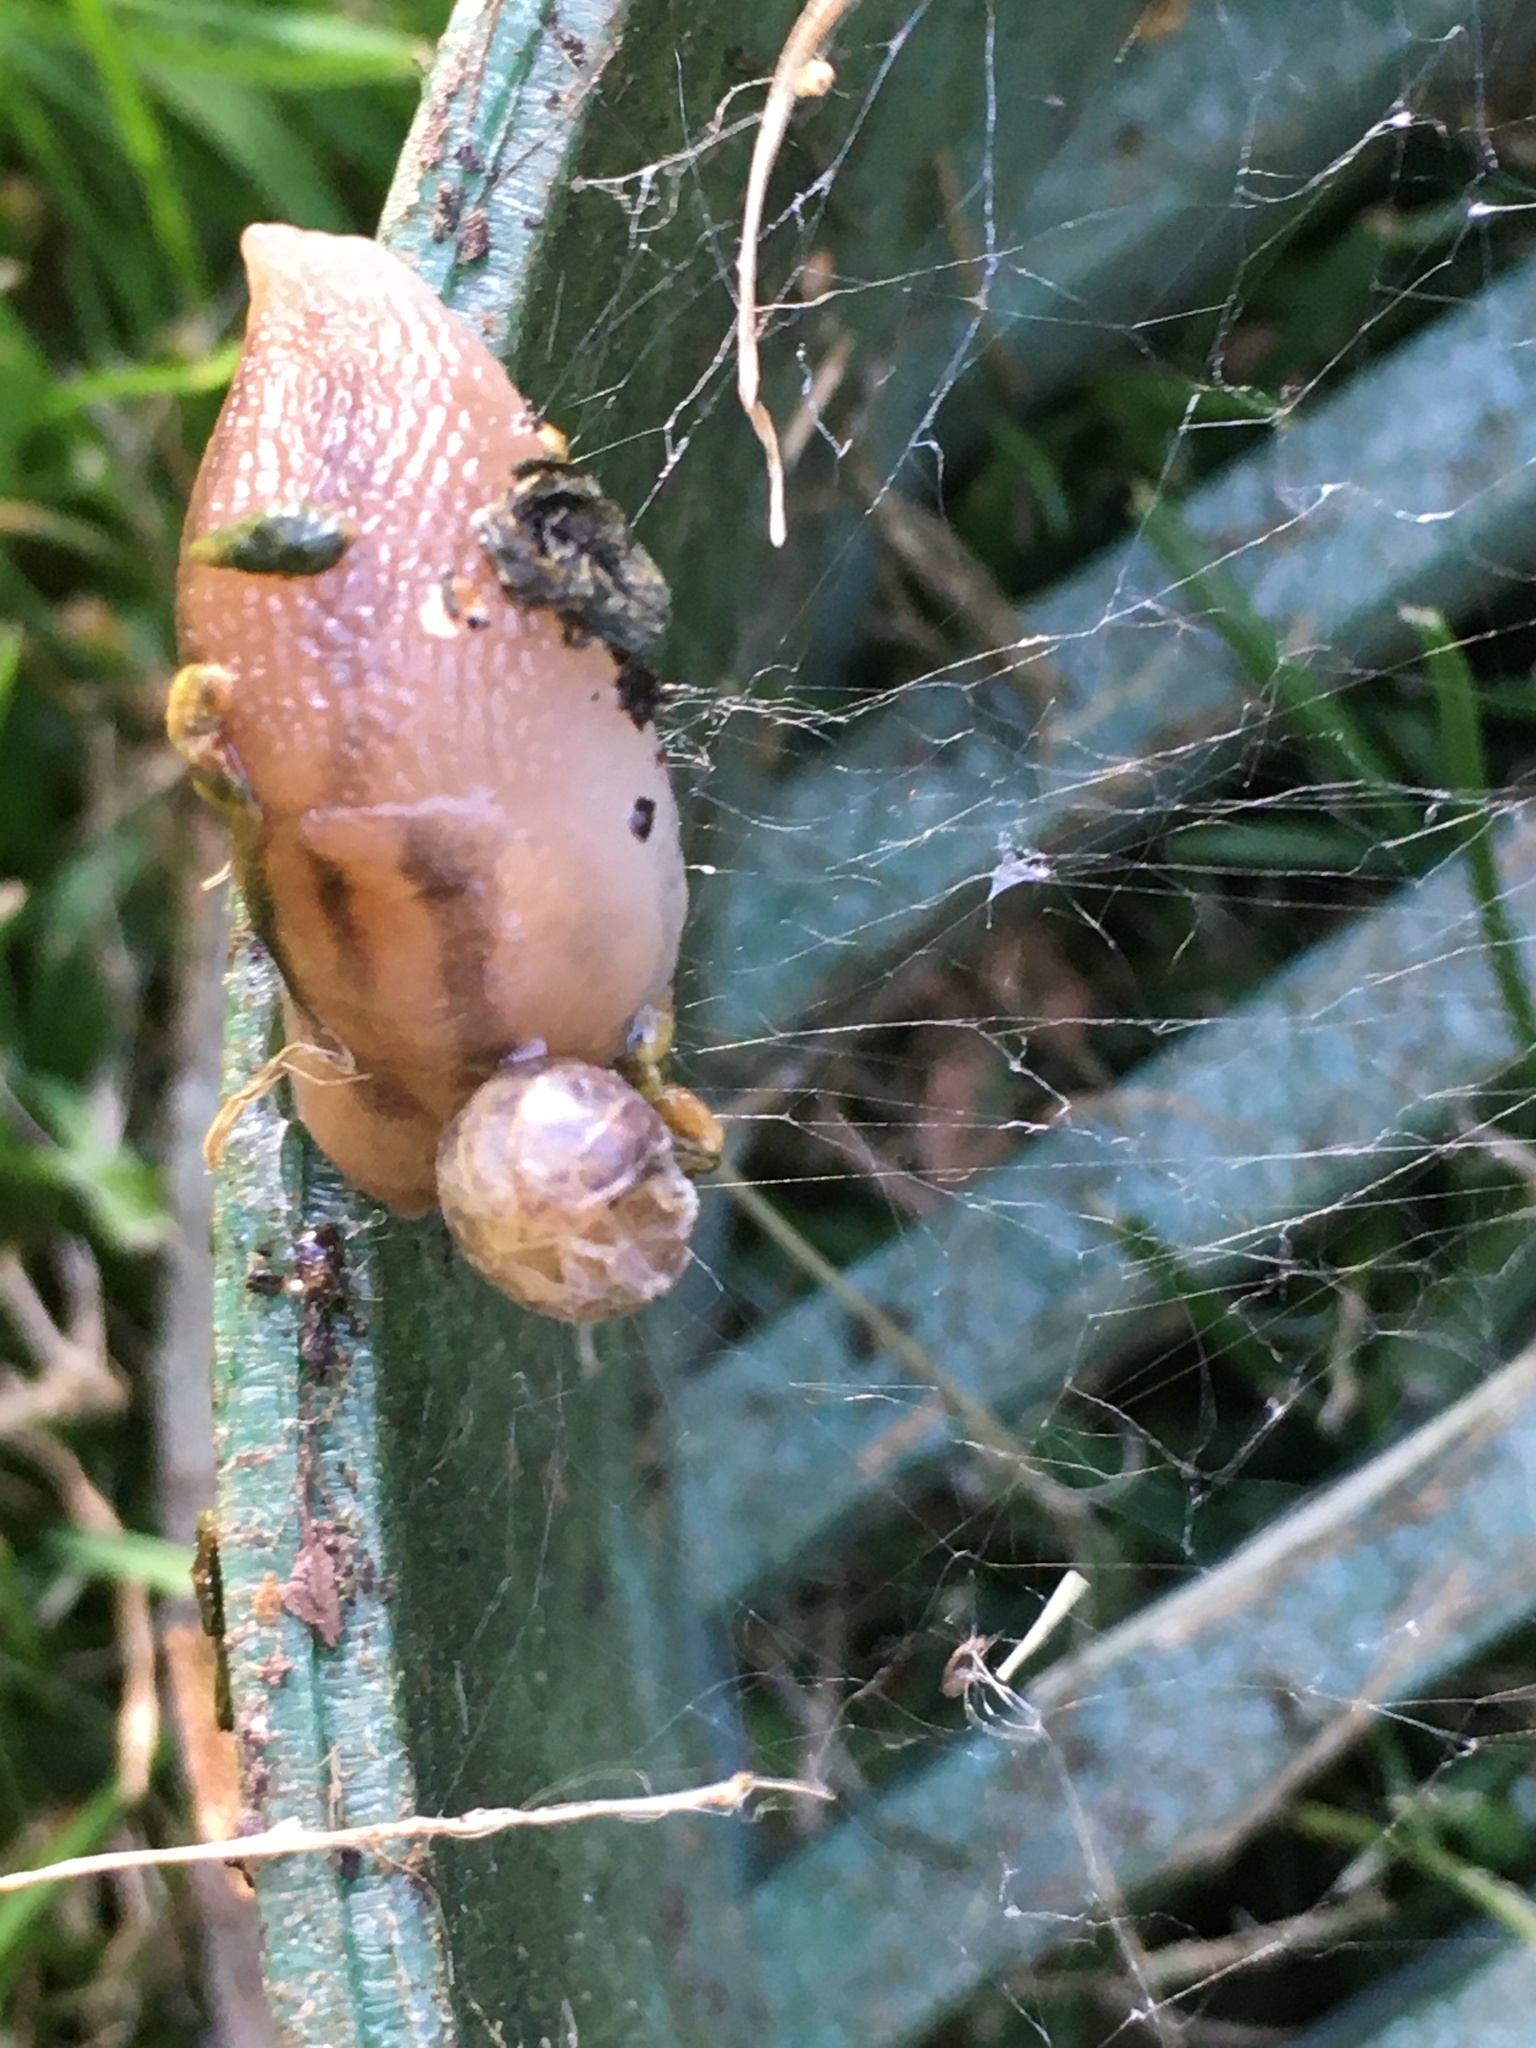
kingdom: Animalia
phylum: Mollusca
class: Gastropoda
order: Stylommatophora
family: Limacidae
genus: Ambigolimax
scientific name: Ambigolimax
